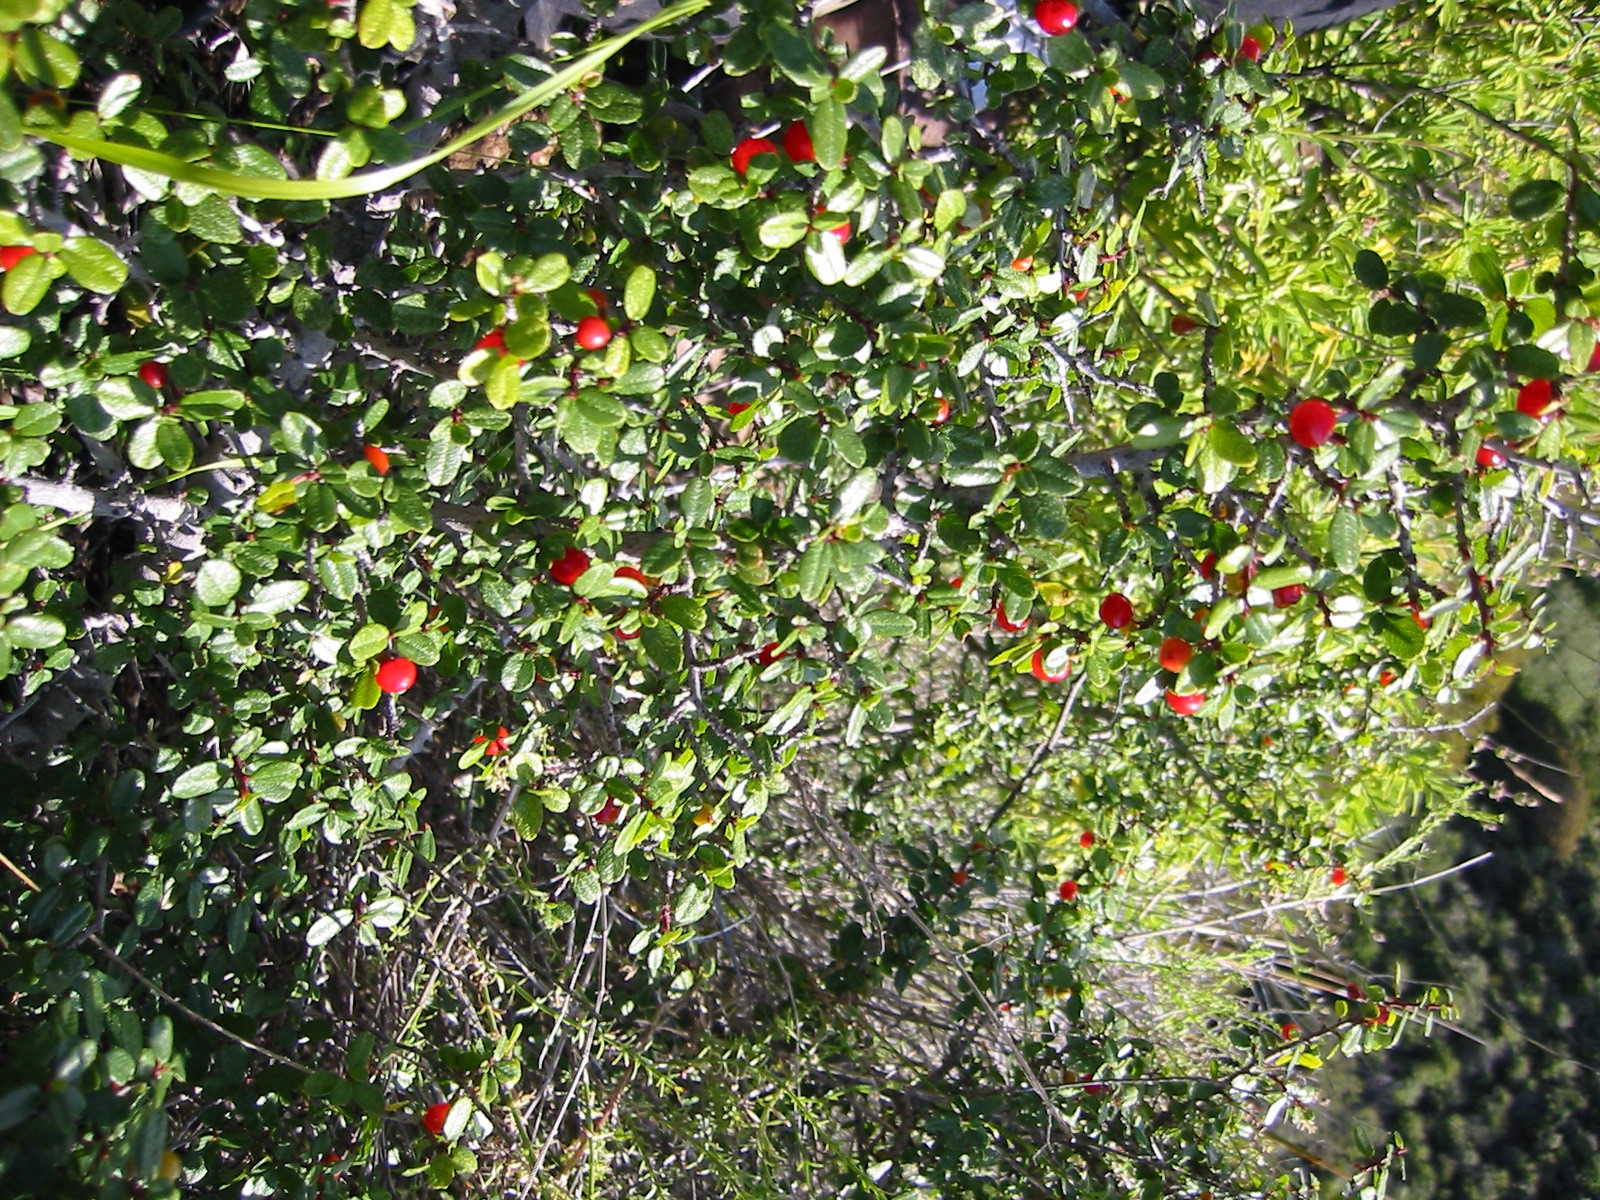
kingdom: Plantae
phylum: Tracheophyta
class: Magnoliopsida
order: Rosales
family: Rhamnaceae
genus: Endotropis
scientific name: Endotropis crocea
